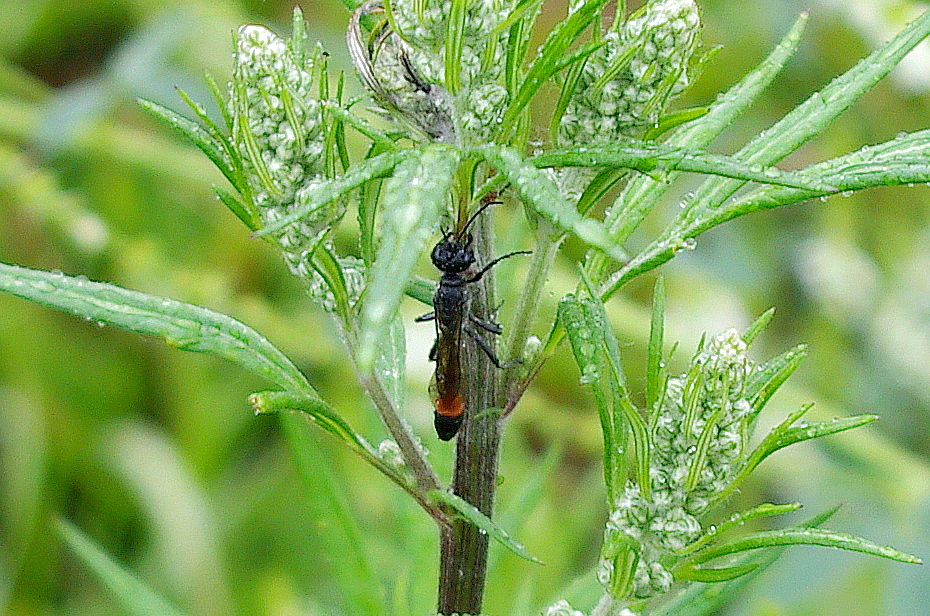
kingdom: Animalia
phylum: Arthropoda
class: Insecta
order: Hymenoptera
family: Sphecidae
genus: Ammophila
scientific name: Ammophila
